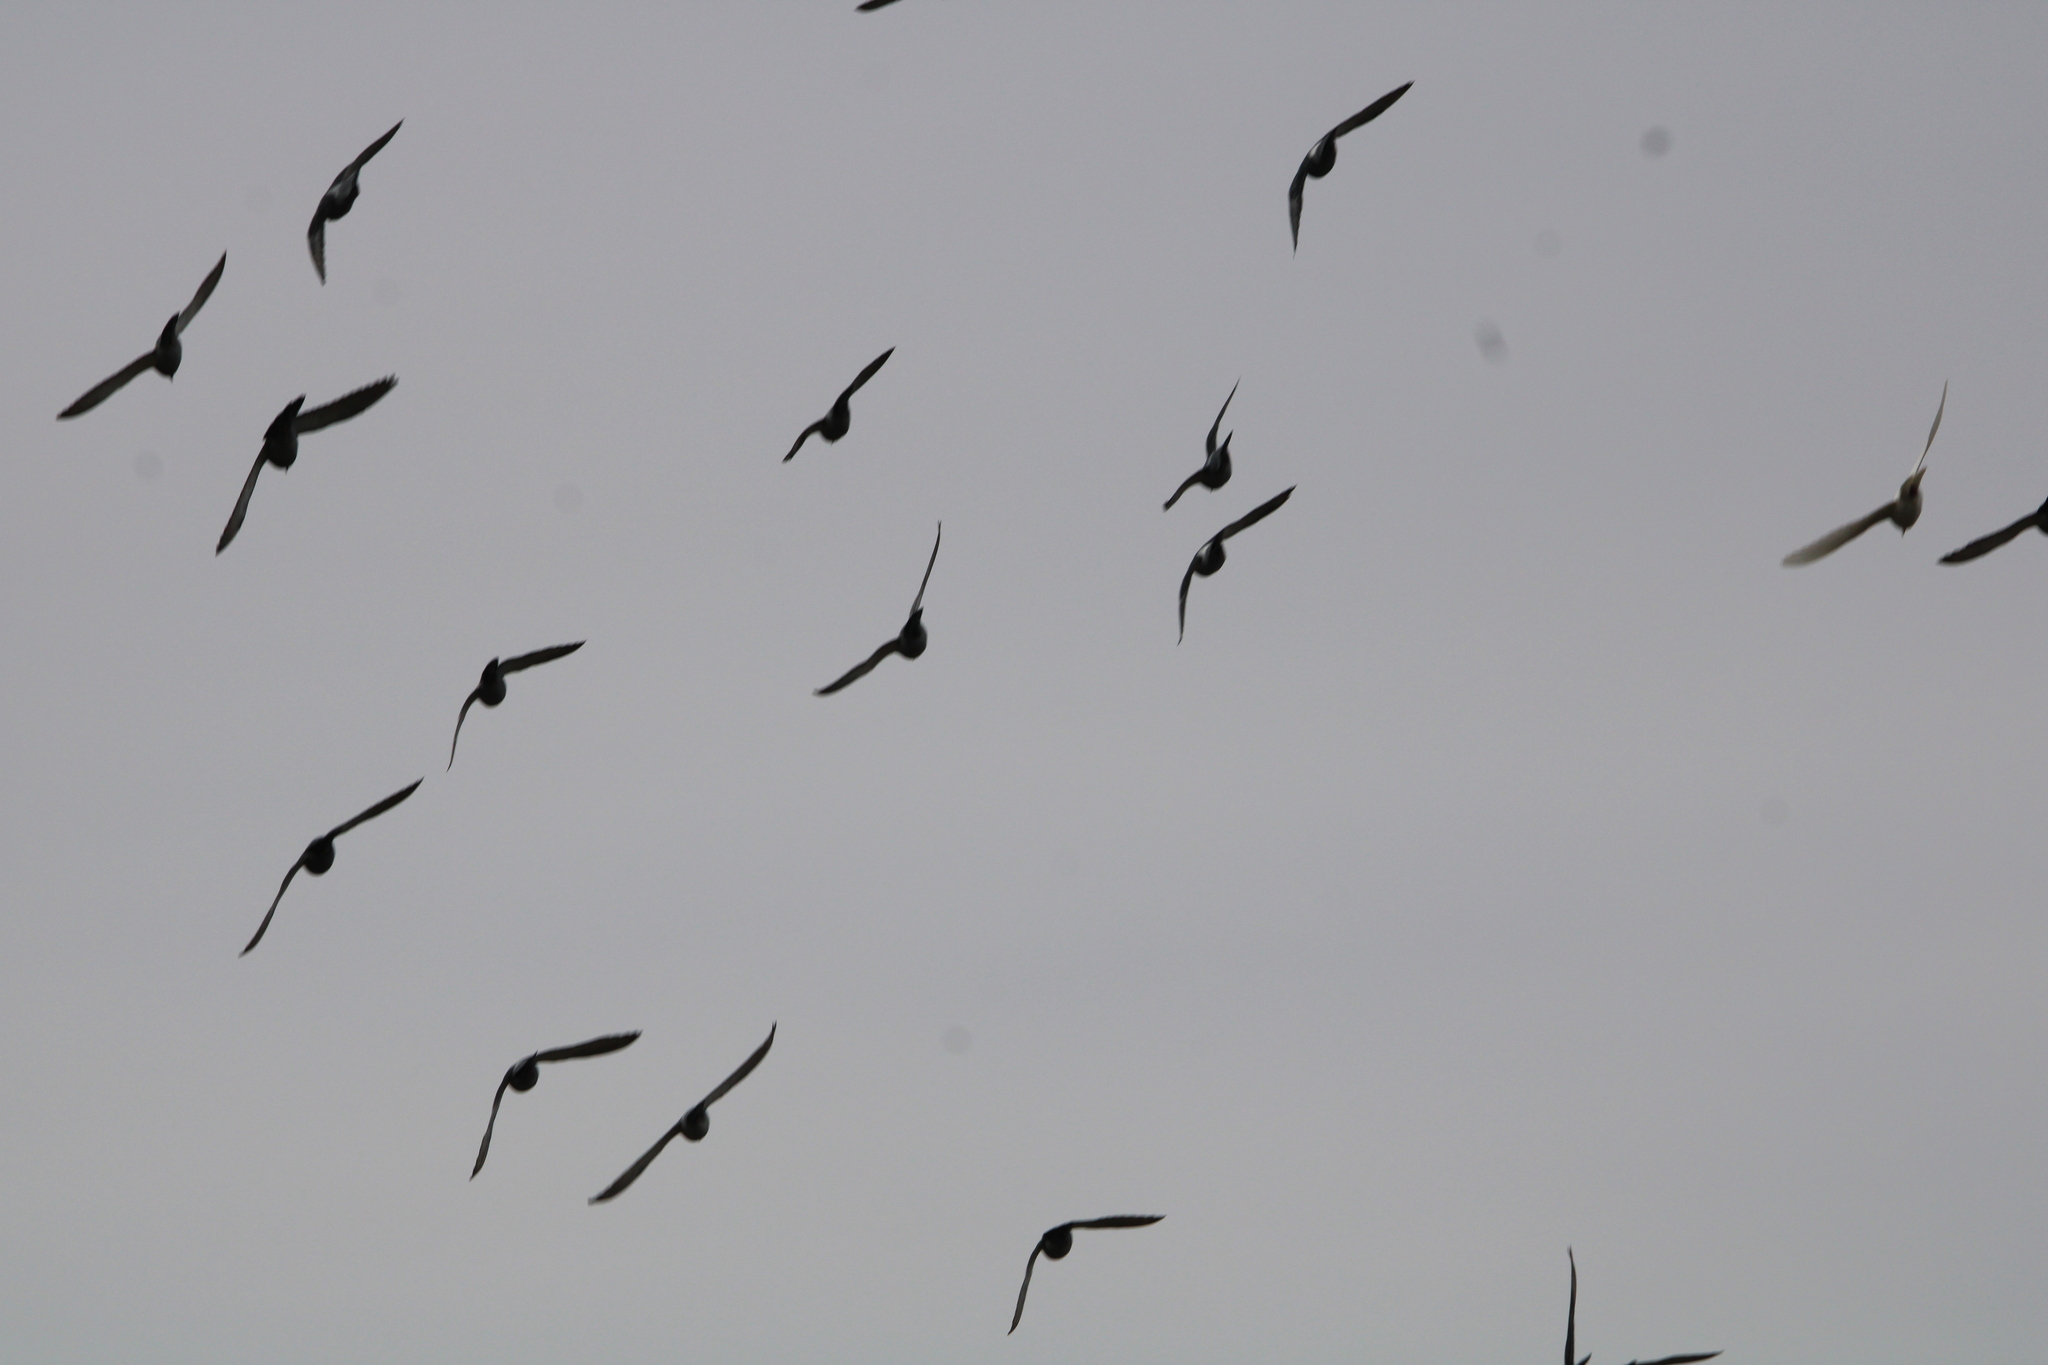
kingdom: Animalia
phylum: Chordata
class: Aves
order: Columbiformes
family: Columbidae
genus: Columba
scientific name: Columba livia
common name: Rock pigeon
